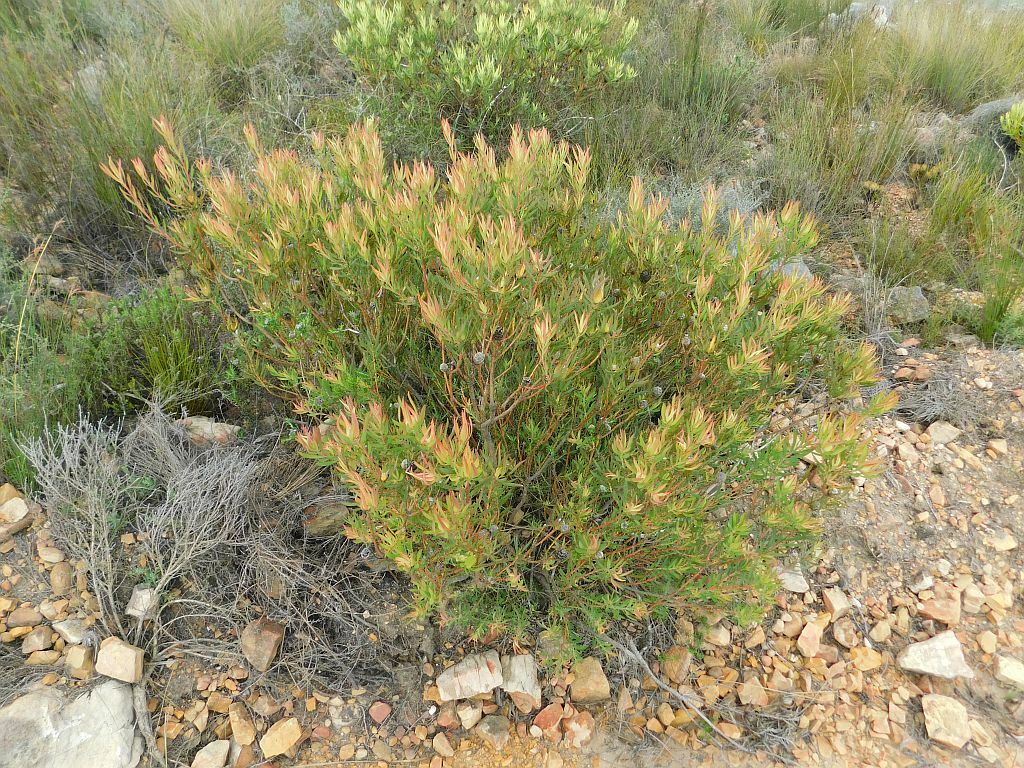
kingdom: Plantae
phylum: Tracheophyta
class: Magnoliopsida
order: Proteales
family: Proteaceae
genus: Leucadendron
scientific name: Leucadendron salignum
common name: Common sunshine conebush
